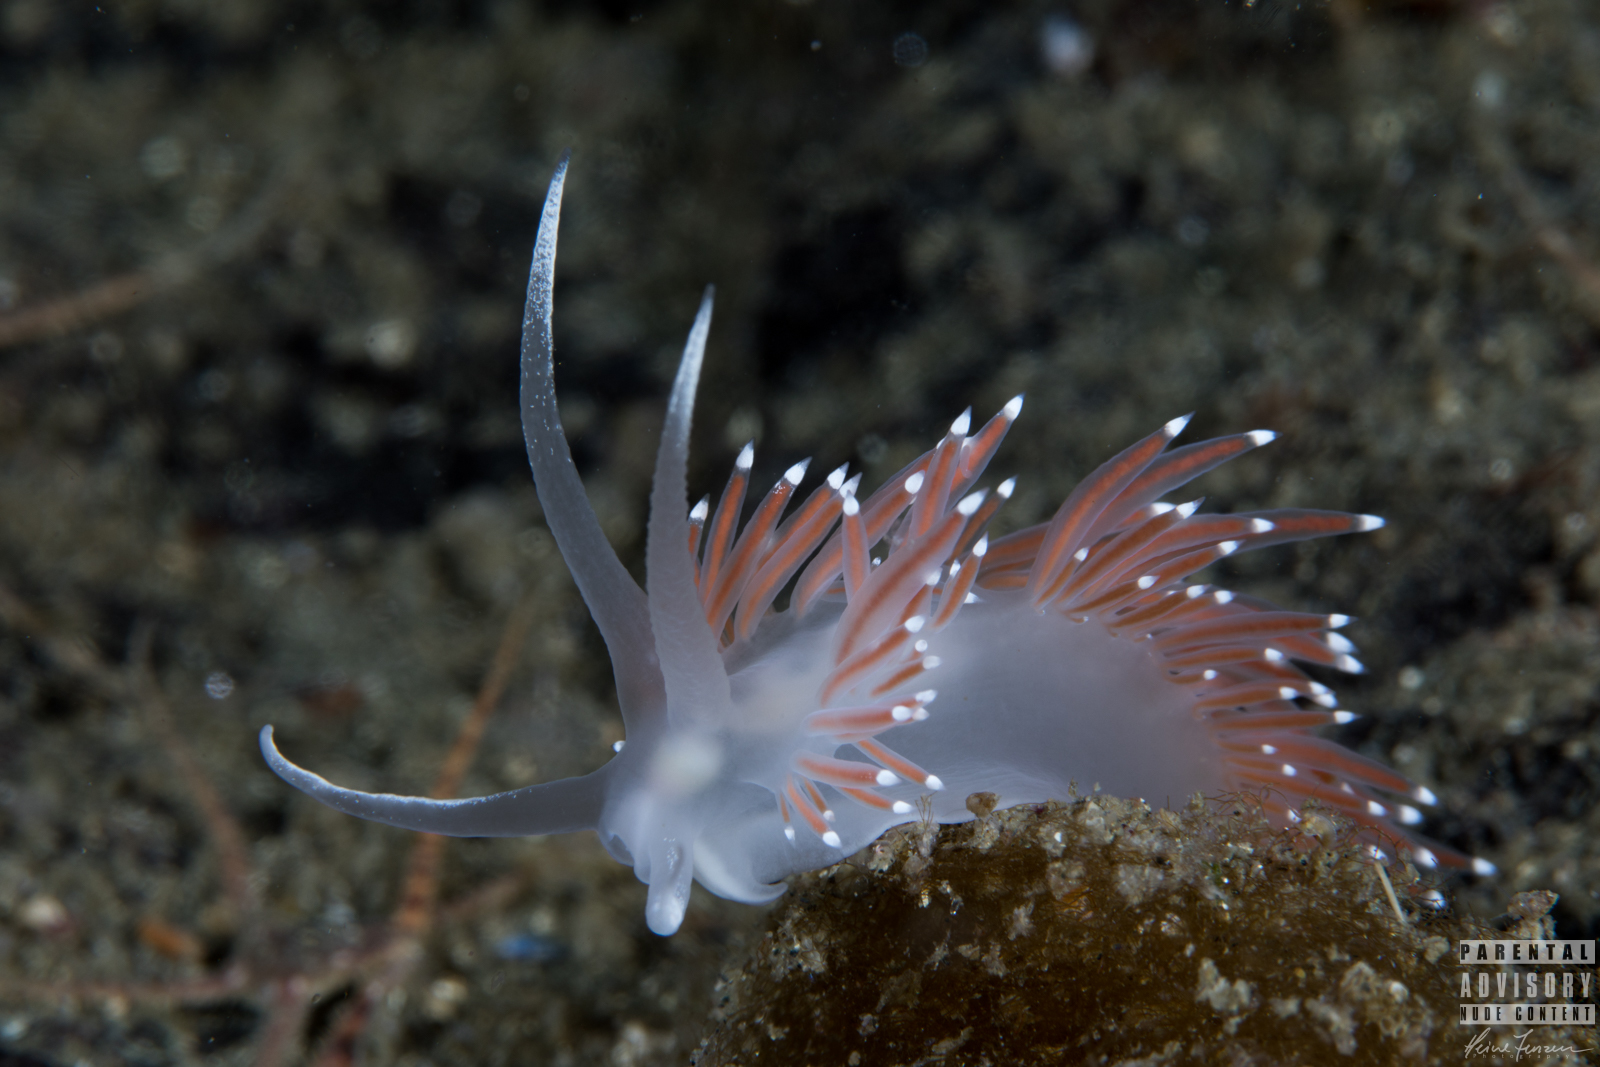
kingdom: Animalia
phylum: Mollusca
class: Gastropoda
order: Nudibranchia
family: Coryphellidae
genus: Coryphella
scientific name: Coryphella browni
